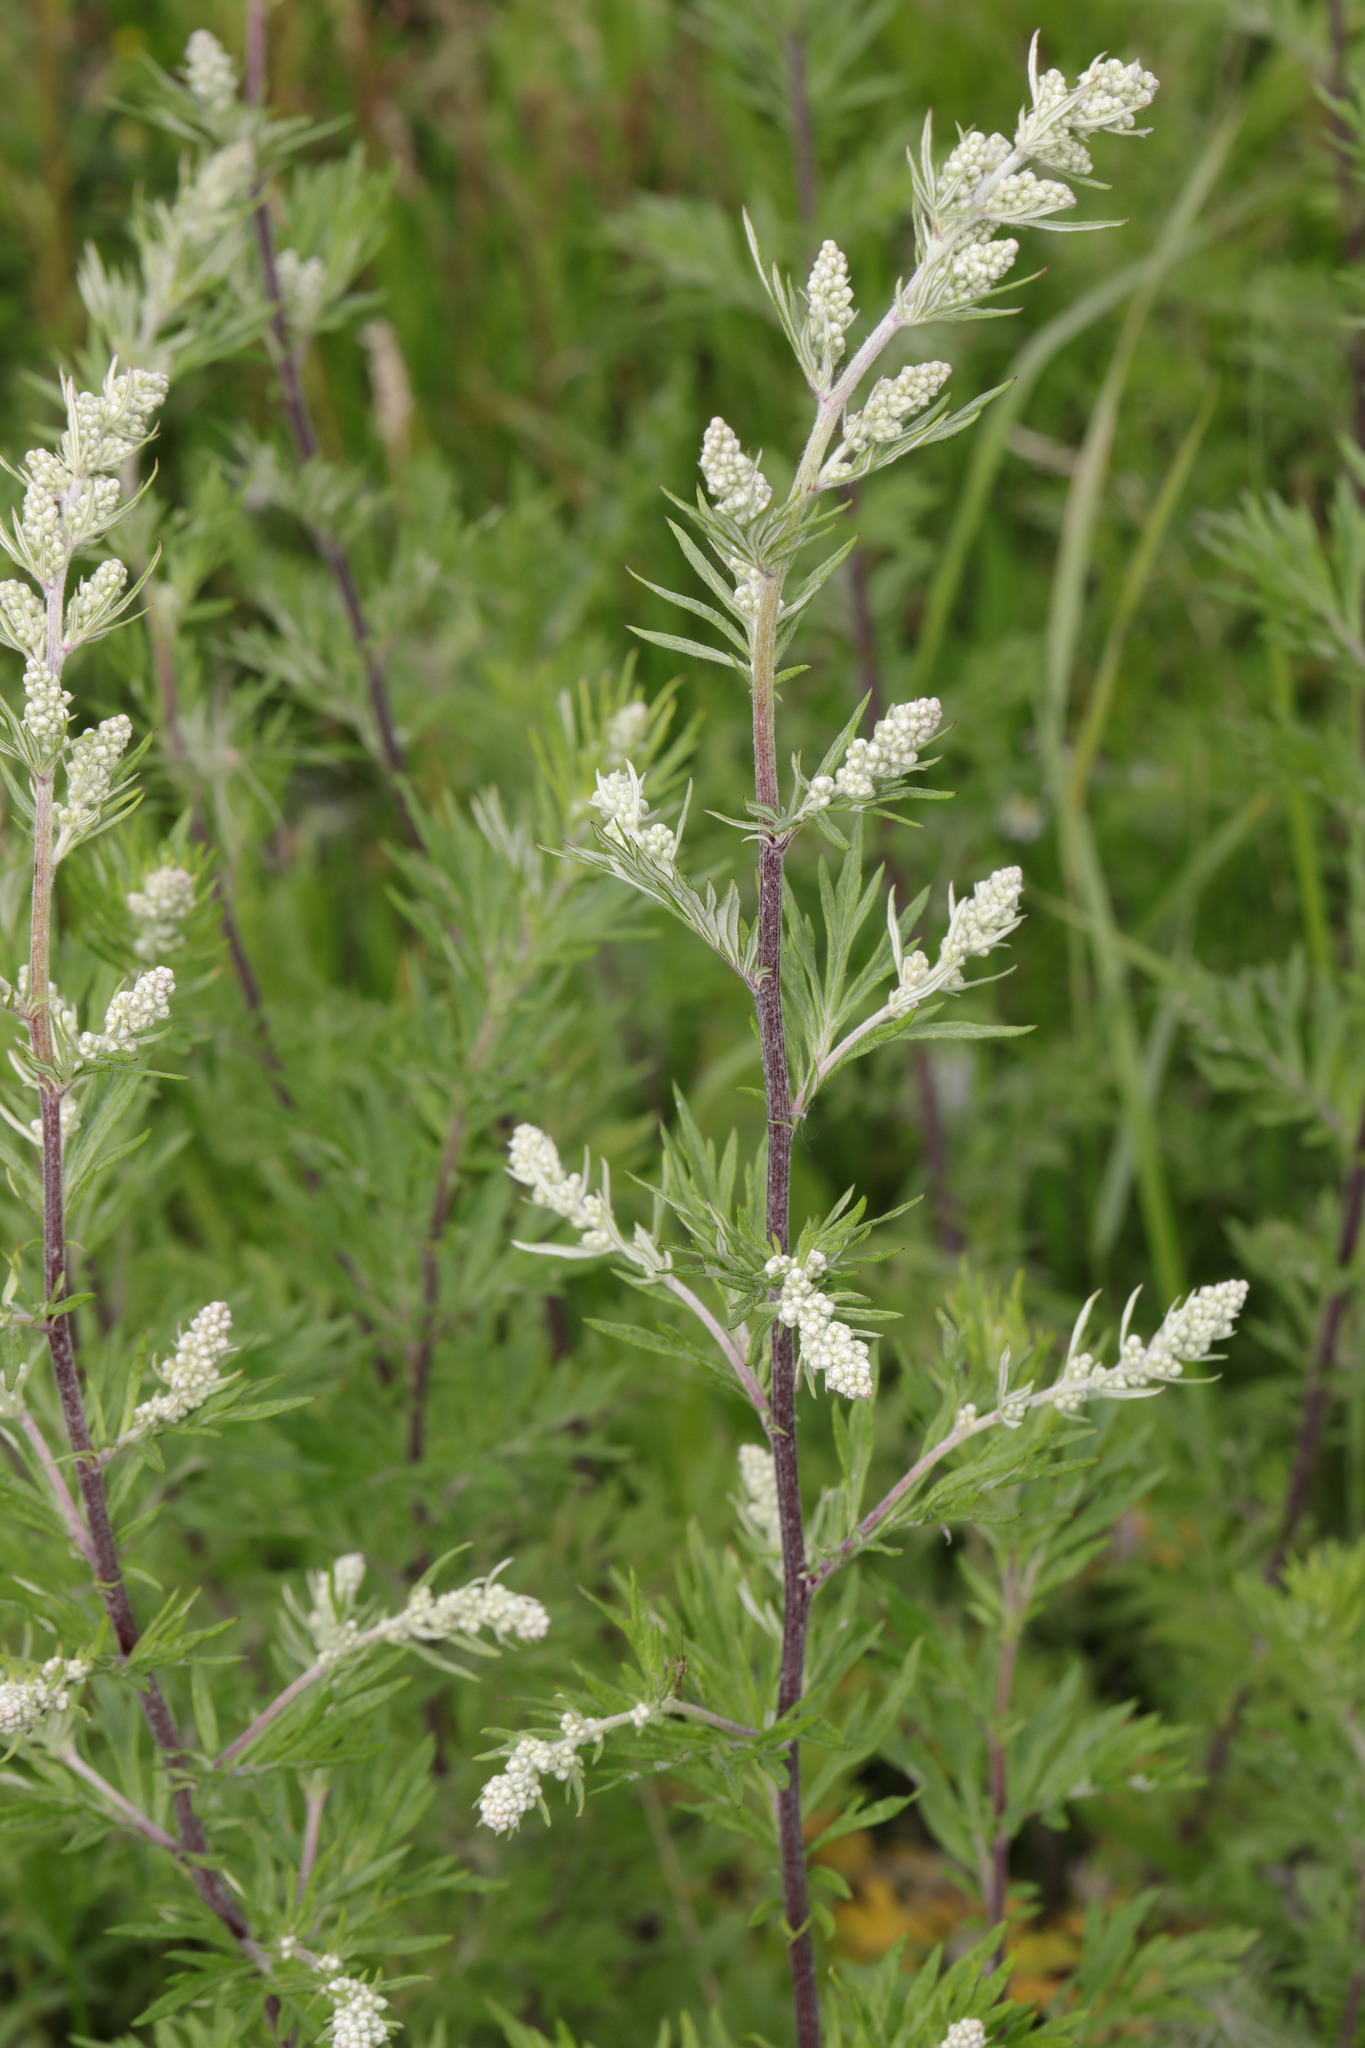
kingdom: Plantae
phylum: Tracheophyta
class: Magnoliopsida
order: Asterales
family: Asteraceae
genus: Artemisia
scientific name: Artemisia vulgaris
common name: Mugwort
